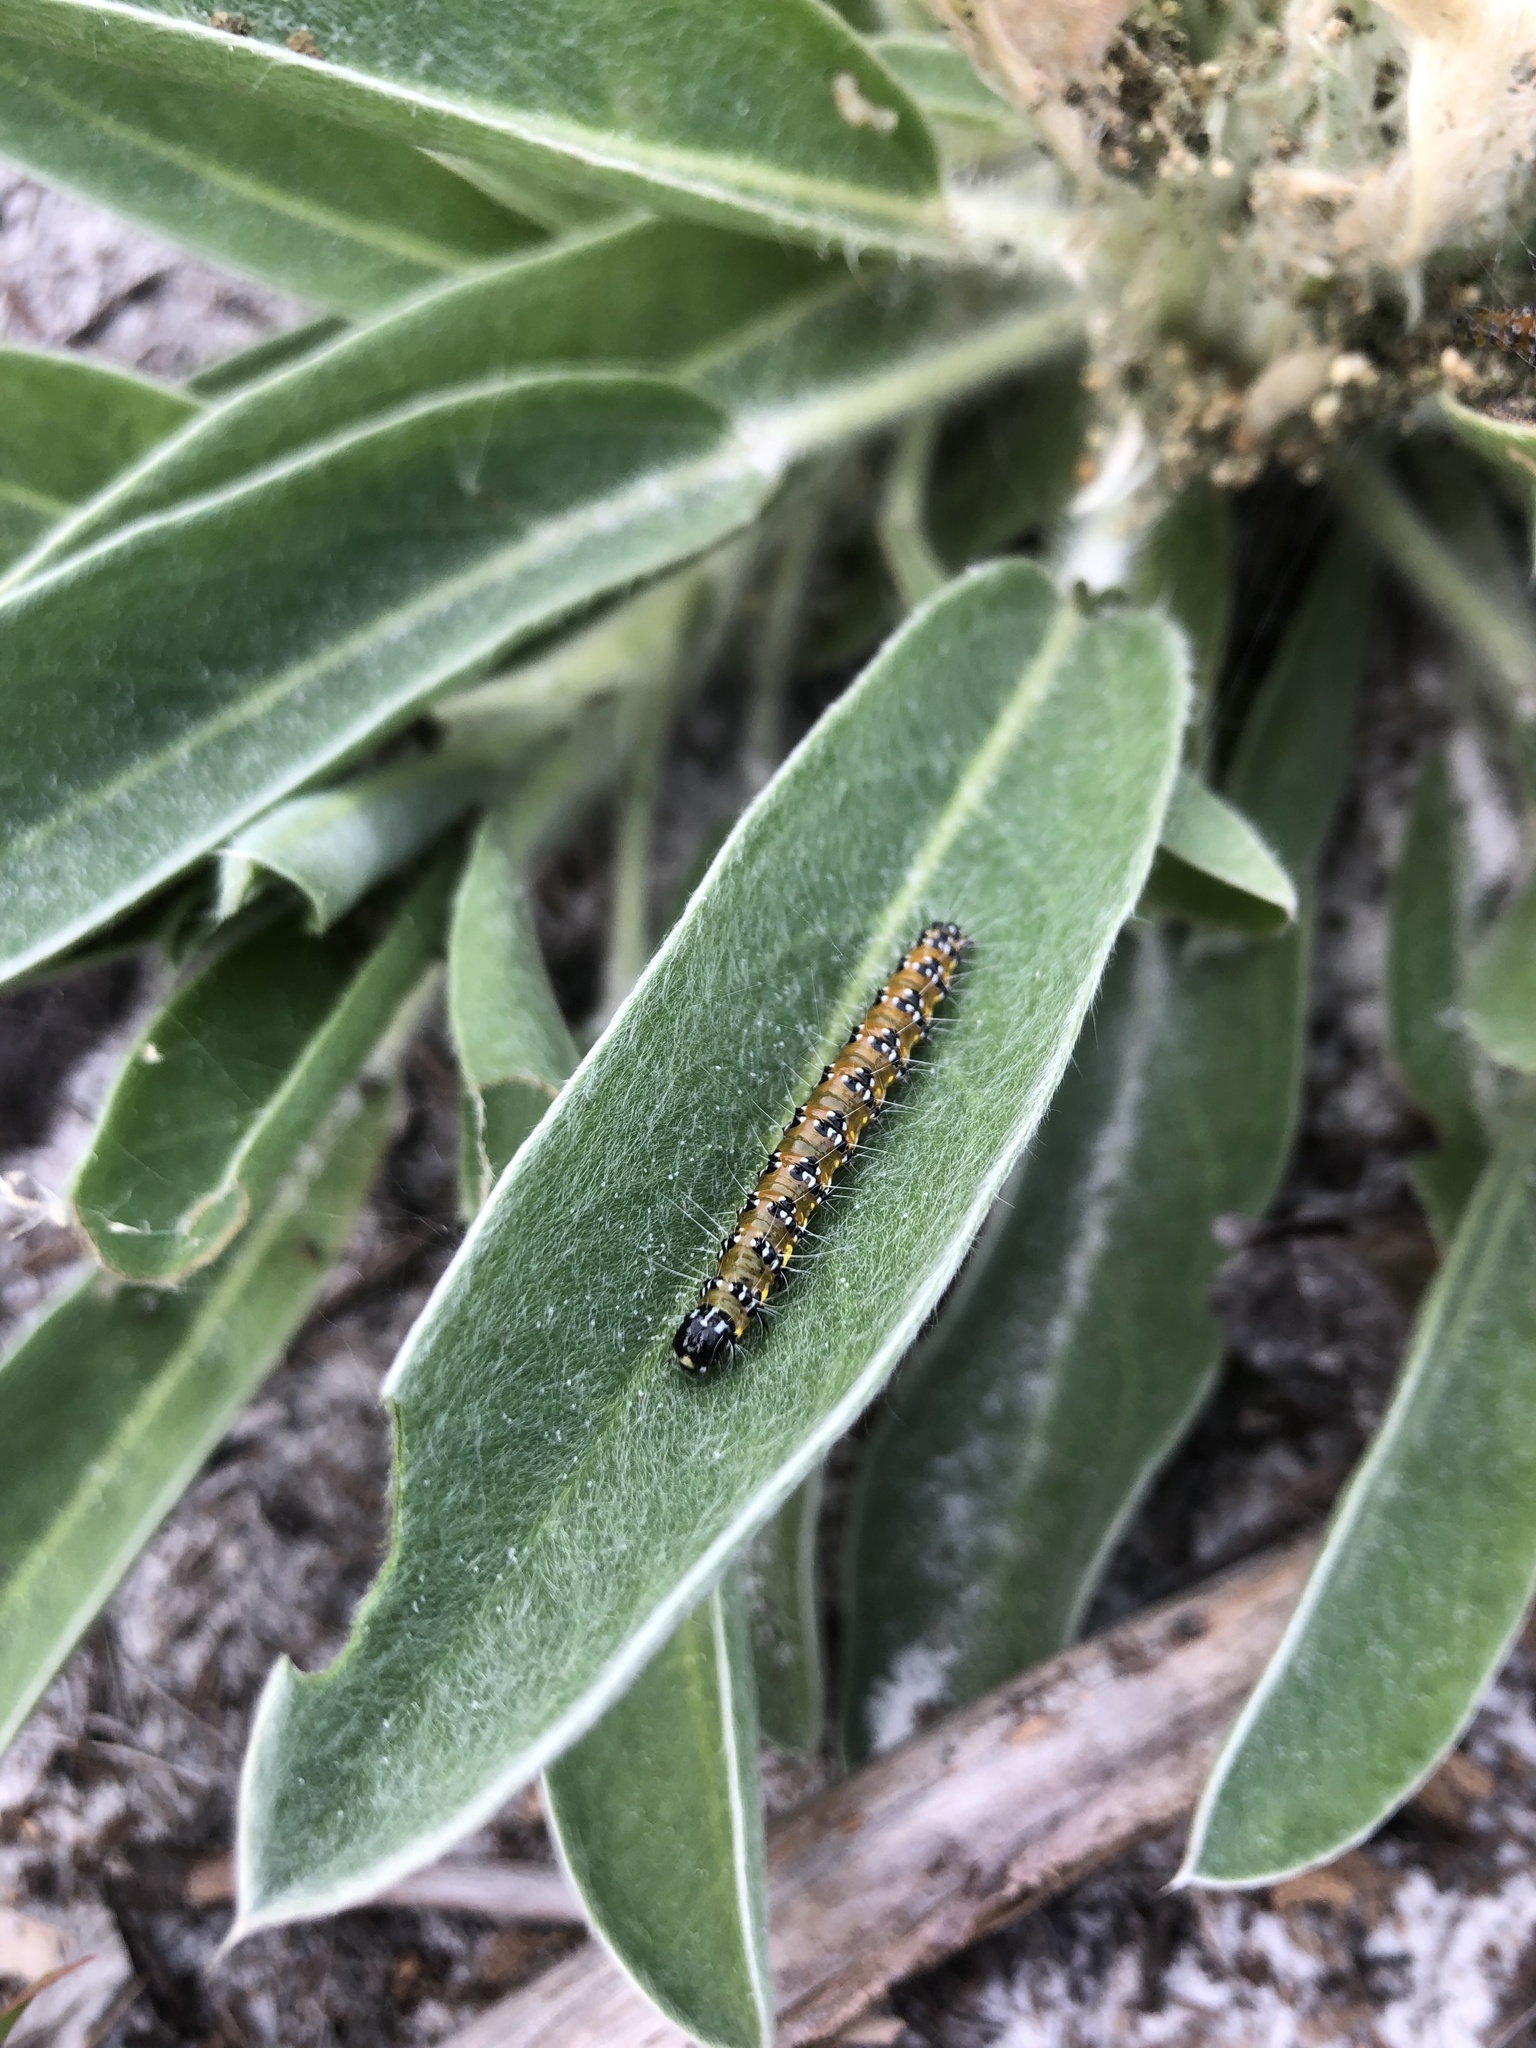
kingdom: Animalia
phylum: Arthropoda
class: Insecta
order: Lepidoptera
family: Crambidae
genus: Uresiphita
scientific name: Uresiphita reversalis
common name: Genista broom moth
